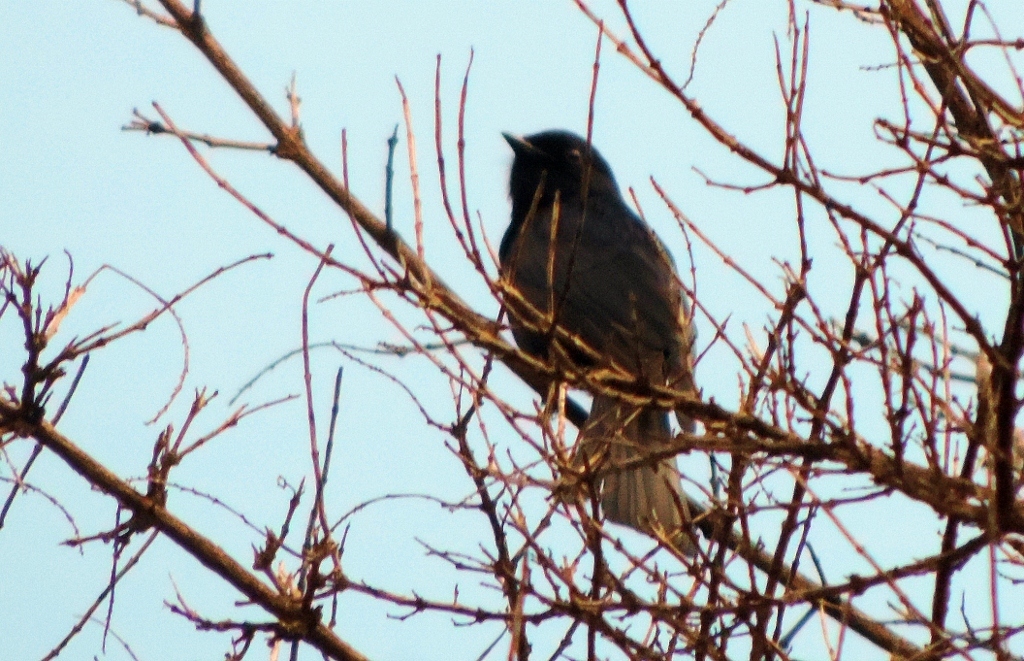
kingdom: Animalia
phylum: Chordata
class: Aves
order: Passeriformes
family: Muscicapidae
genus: Melaenornis
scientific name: Melaenornis pammelaina
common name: Southern black flycatcher
